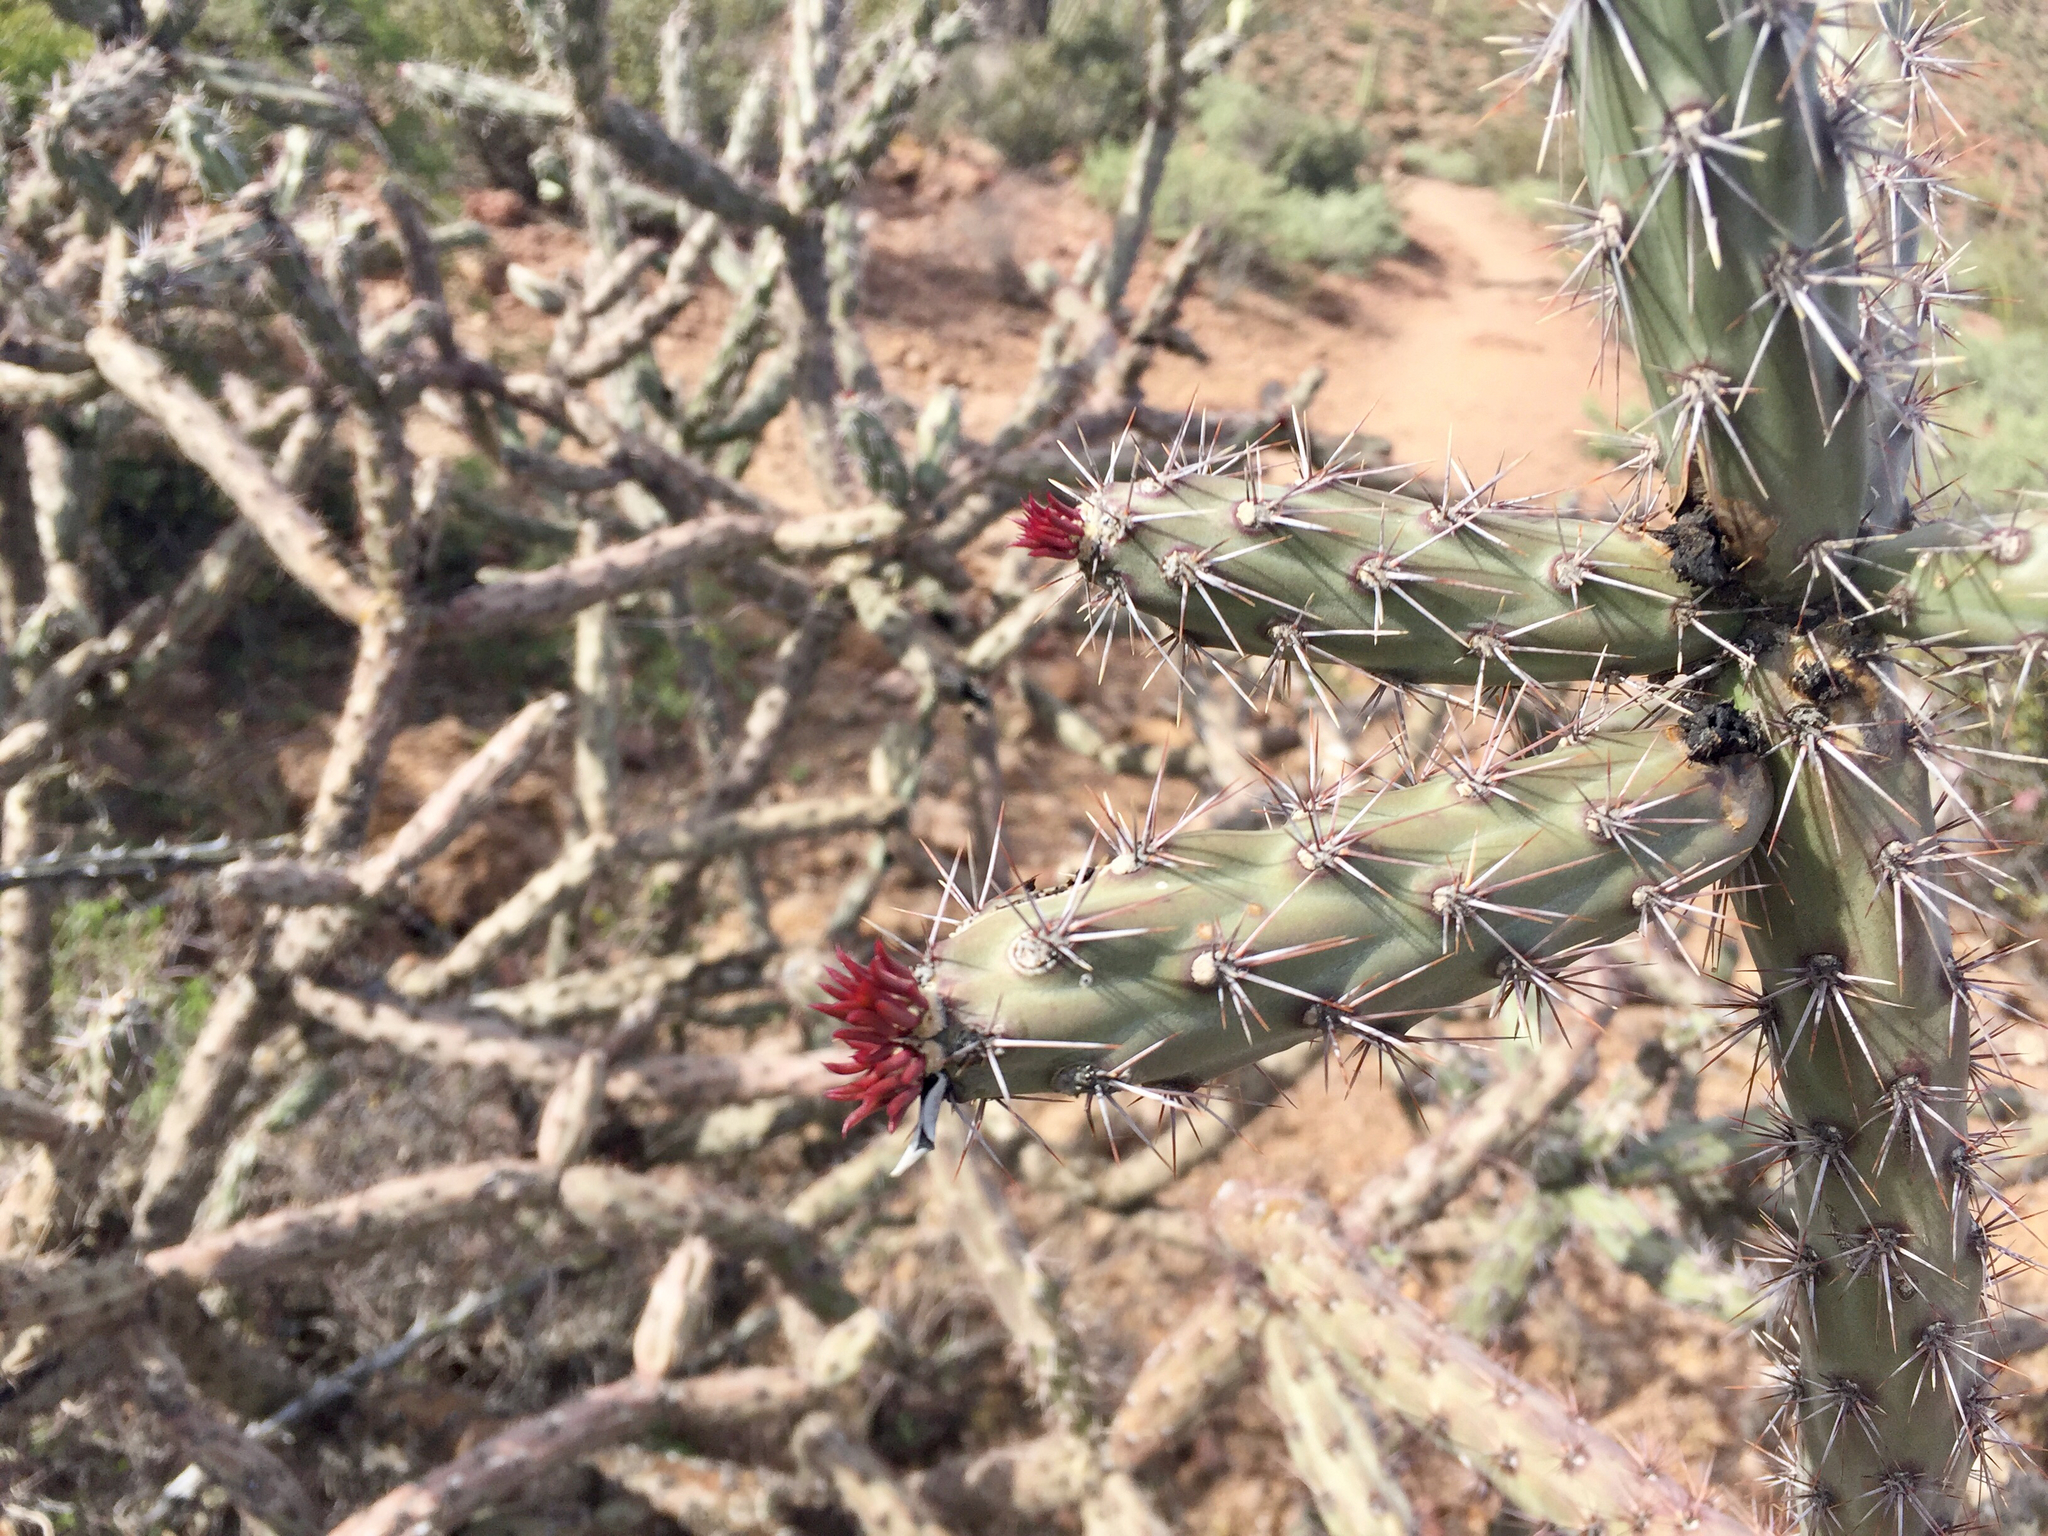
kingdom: Plantae
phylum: Tracheophyta
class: Magnoliopsida
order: Caryophyllales
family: Cactaceae
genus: Cylindropuntia
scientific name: Cylindropuntia acanthocarpa
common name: Buckhorn cholla
